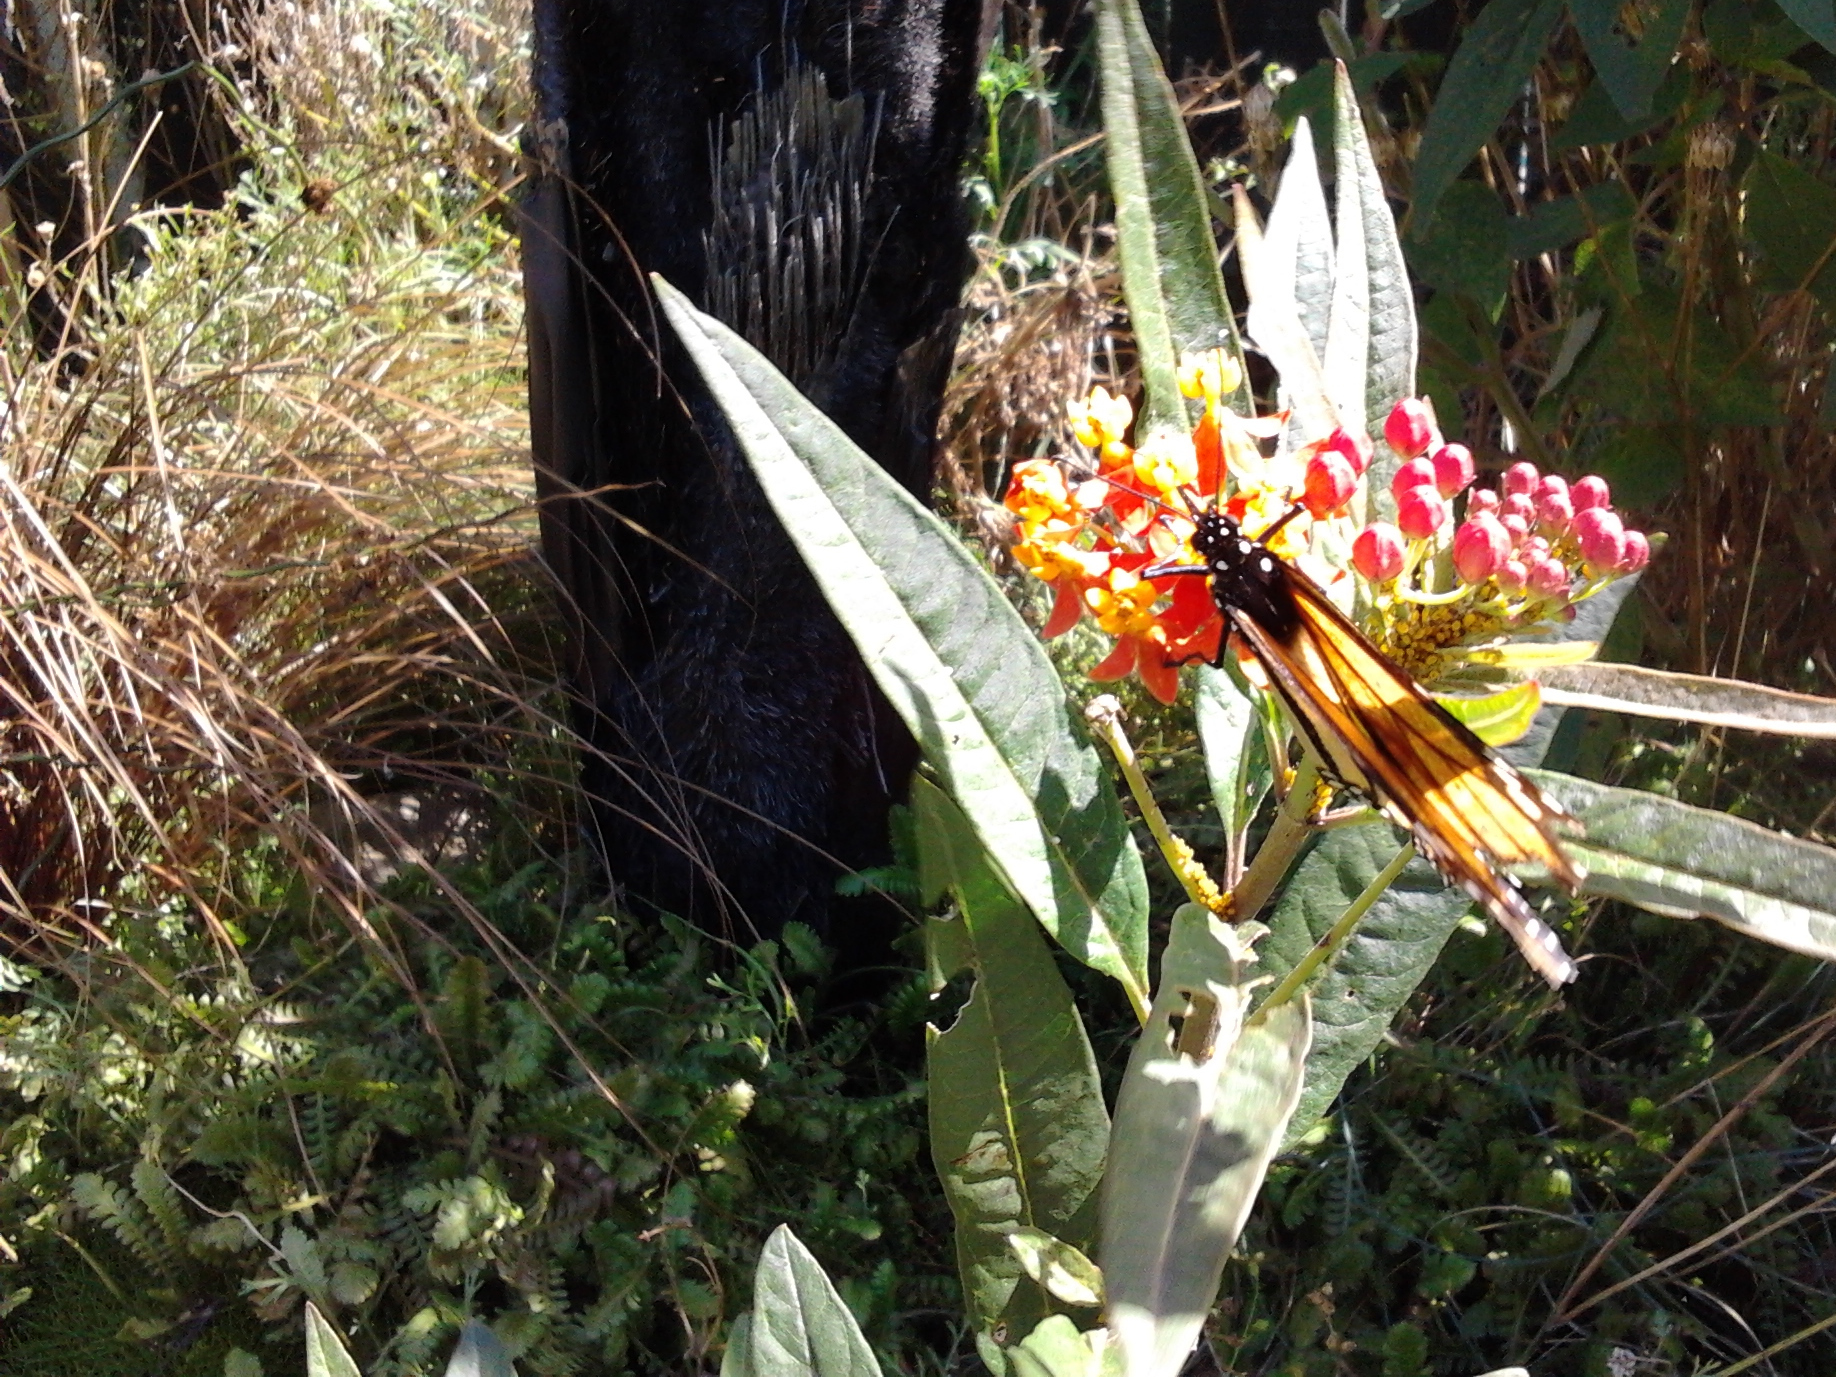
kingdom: Animalia
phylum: Arthropoda
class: Insecta
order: Lepidoptera
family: Nymphalidae
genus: Danaus
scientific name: Danaus plexippus
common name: Monarch
